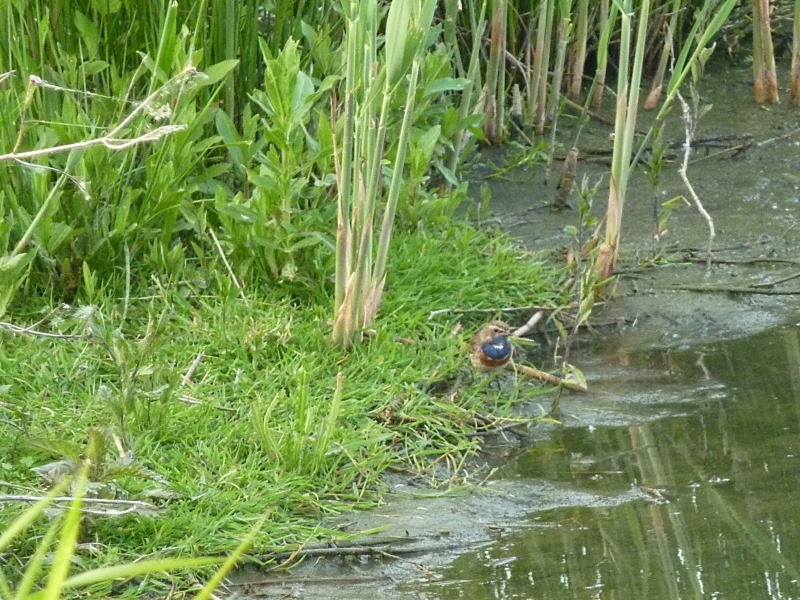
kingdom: Animalia
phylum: Chordata
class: Aves
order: Passeriformes
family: Muscicapidae
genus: Luscinia
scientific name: Luscinia svecica
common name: Bluethroat
